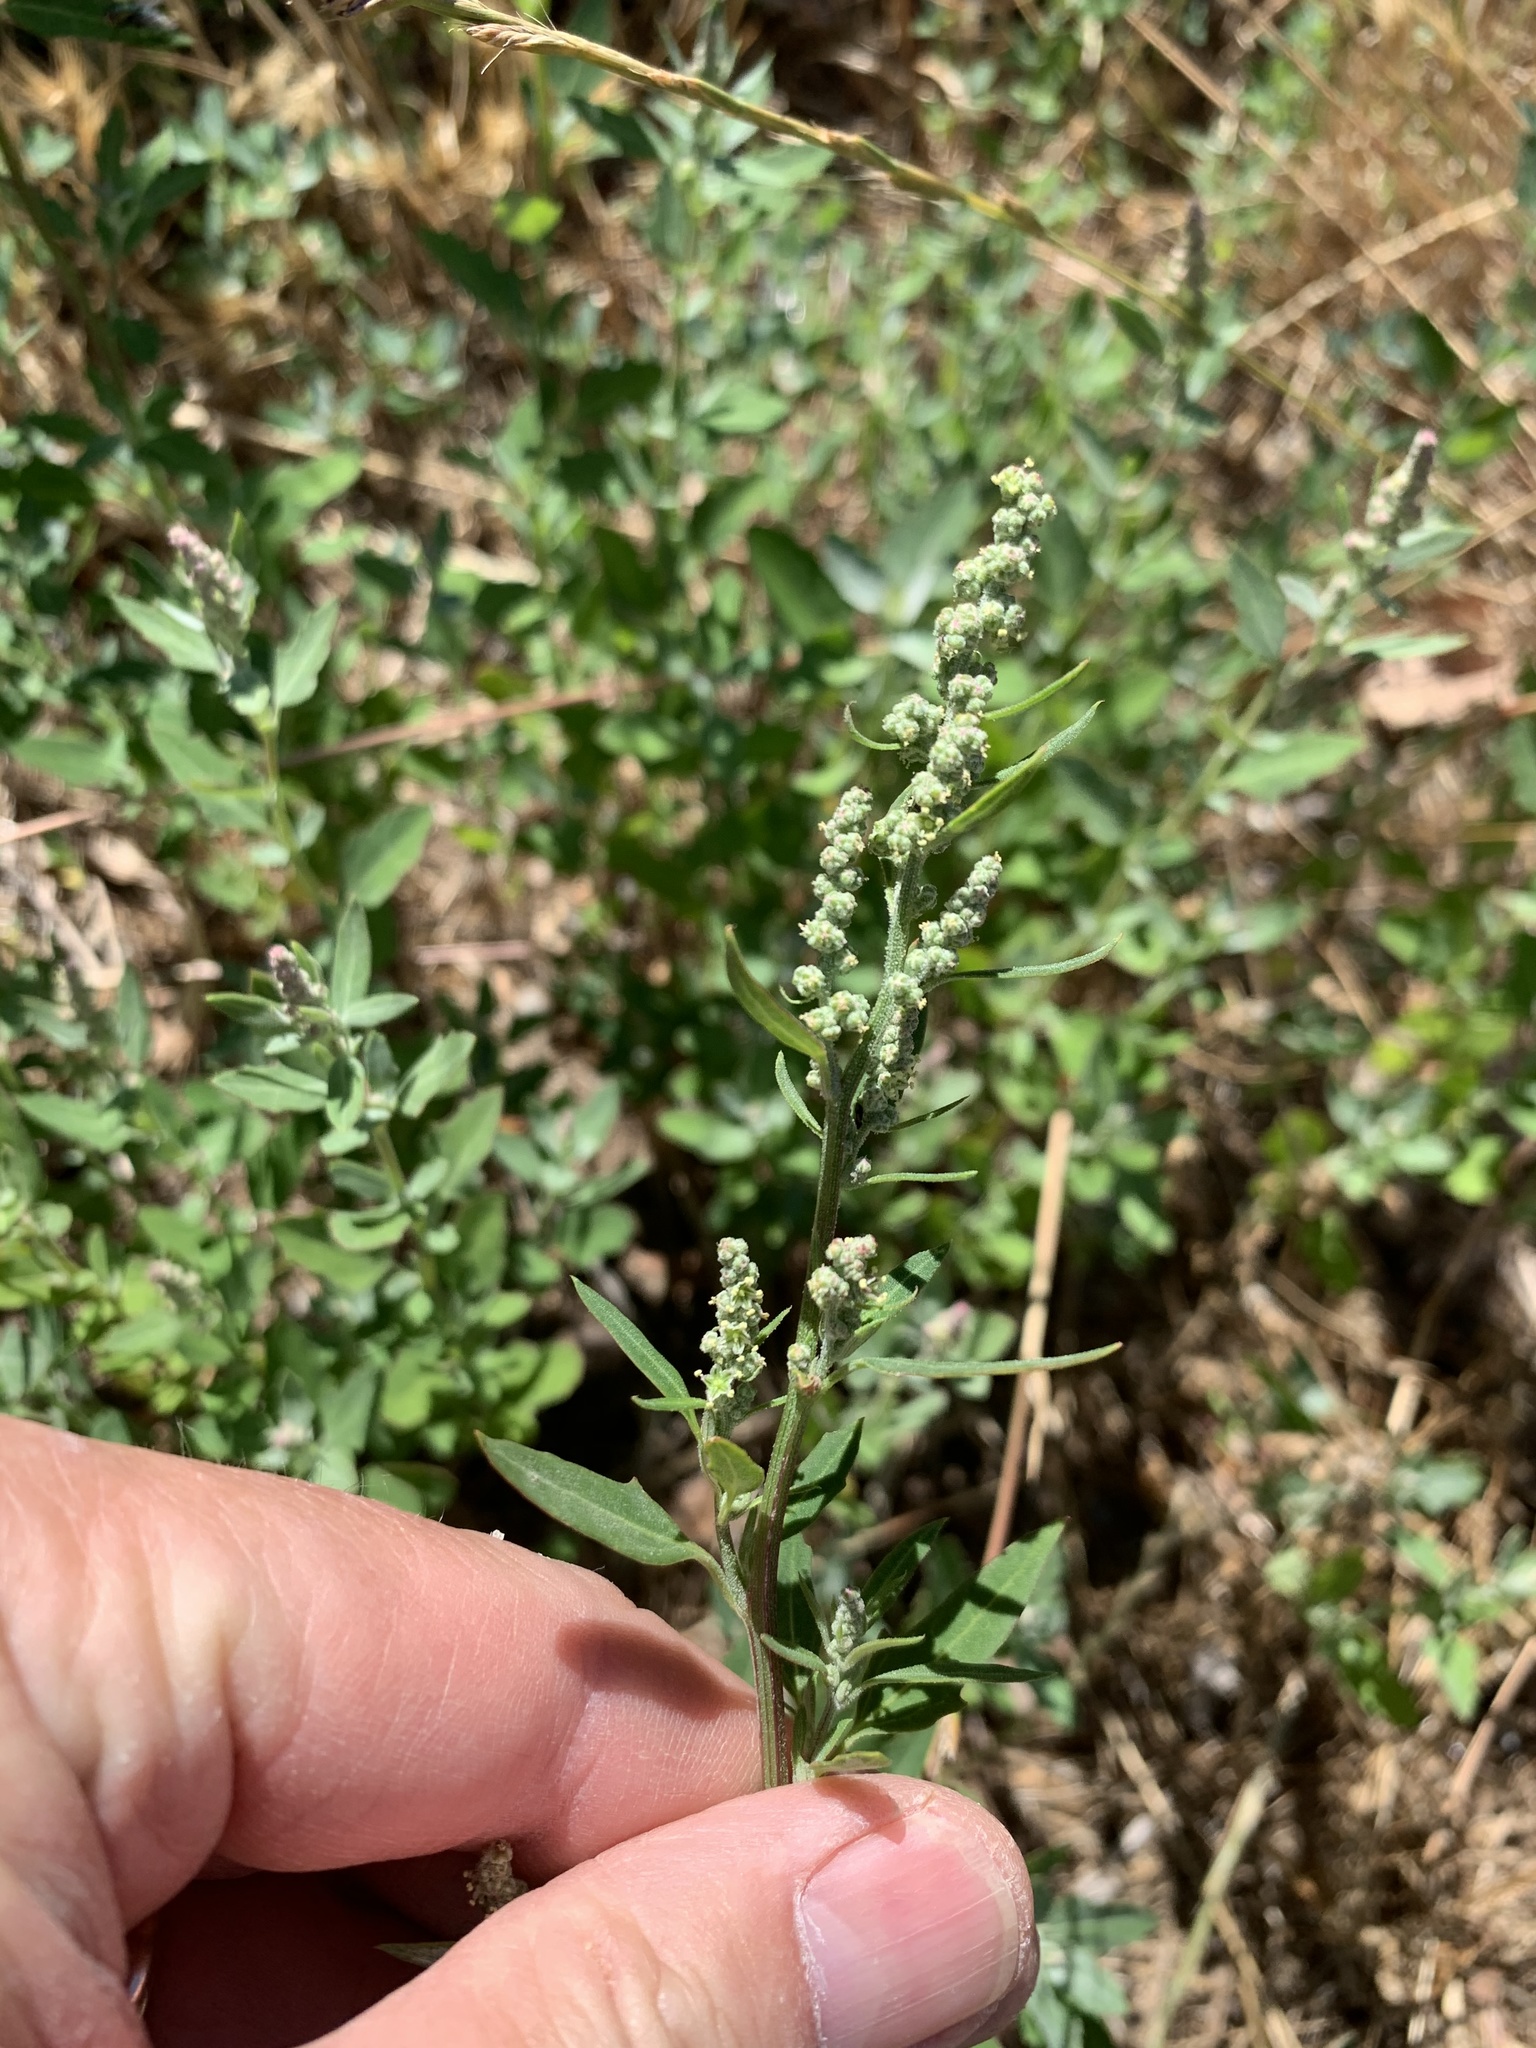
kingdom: Plantae
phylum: Tracheophyta
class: Magnoliopsida
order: Caryophyllales
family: Amaranthaceae
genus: Chenopodium
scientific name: Chenopodium album
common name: Fat-hen
